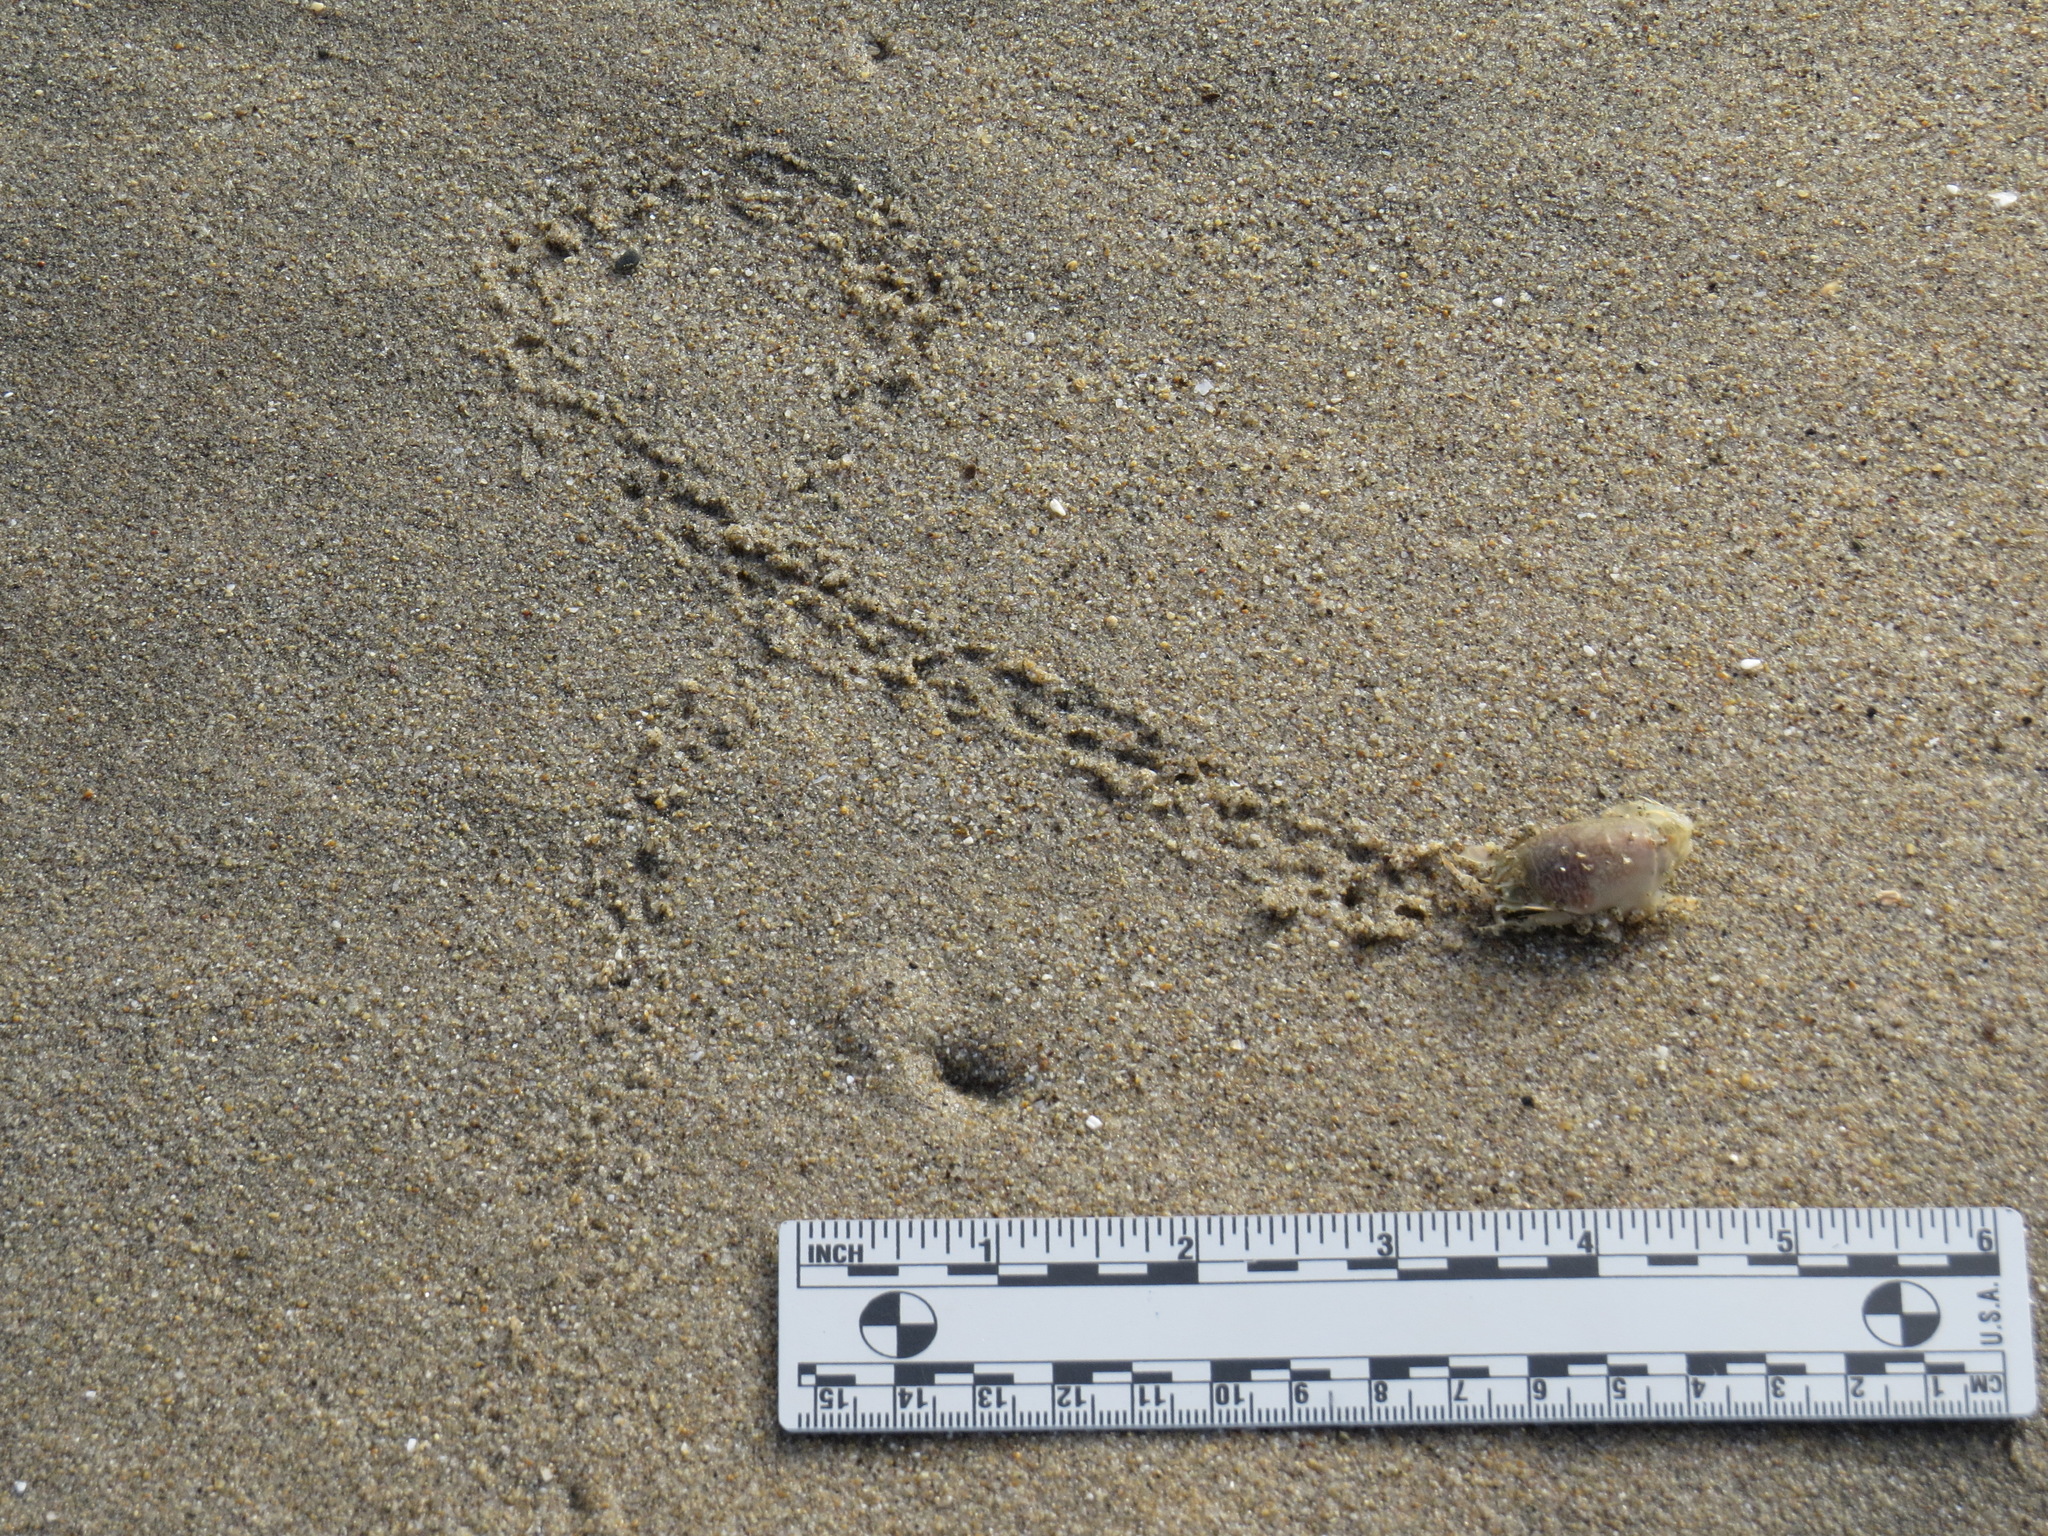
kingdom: Animalia
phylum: Arthropoda
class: Malacostraca
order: Decapoda
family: Hippidae
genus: Emerita
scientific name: Emerita analoga
